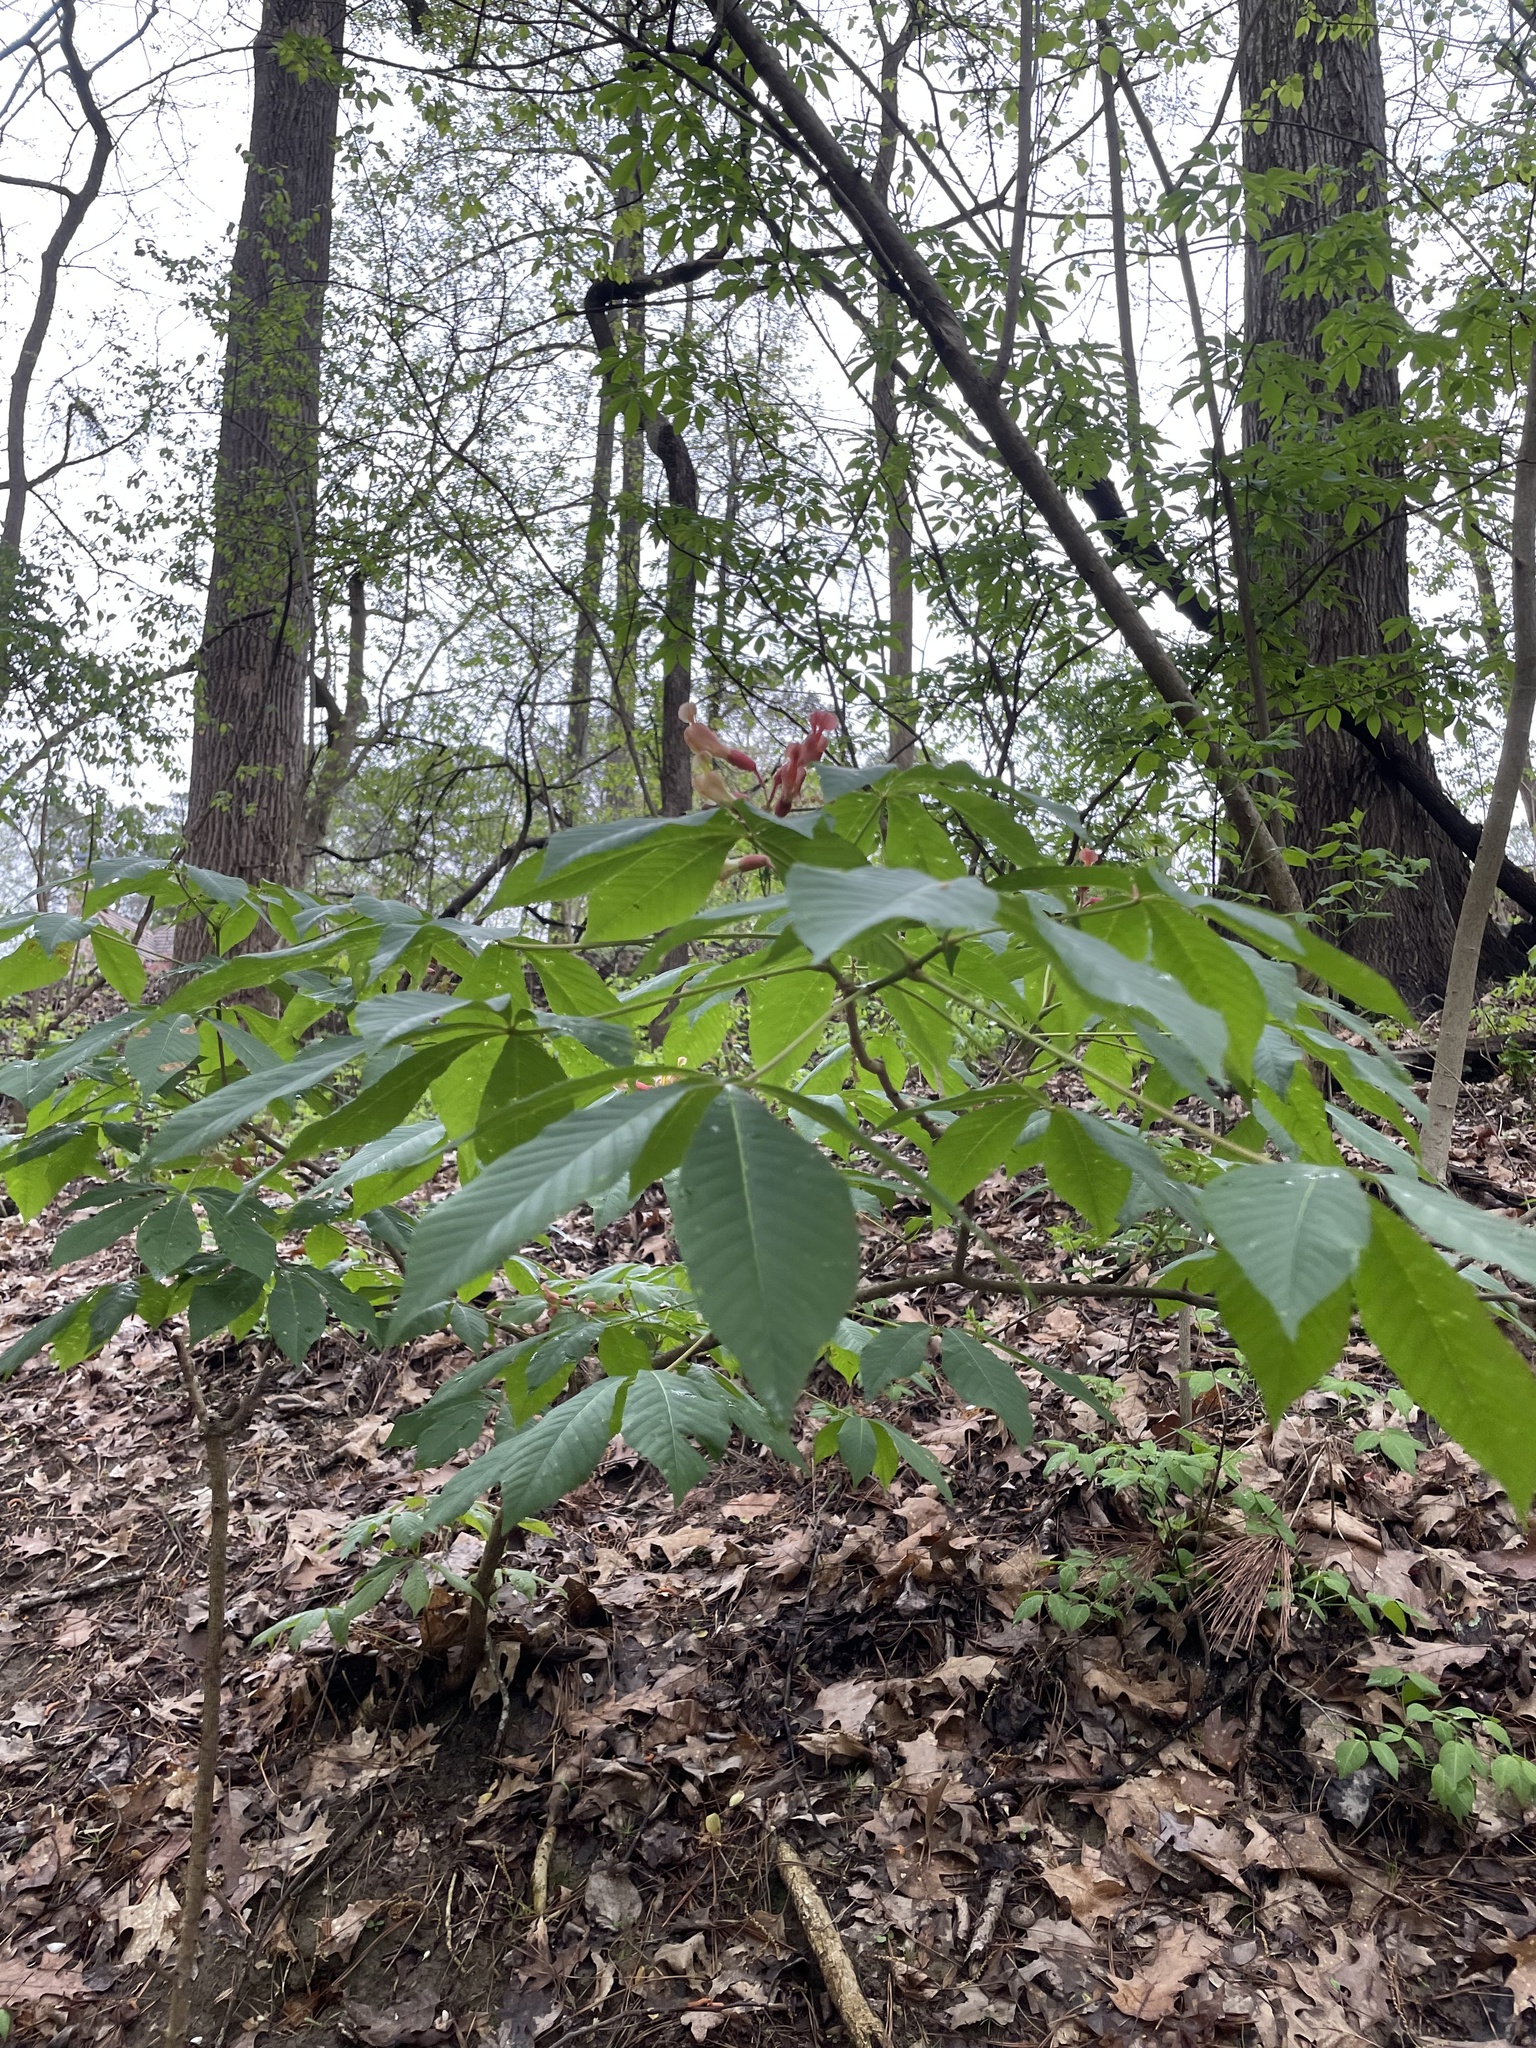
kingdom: Plantae
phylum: Tracheophyta
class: Magnoliopsida
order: Sapindales
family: Sapindaceae
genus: Aesculus
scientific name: Aesculus mutabilis
